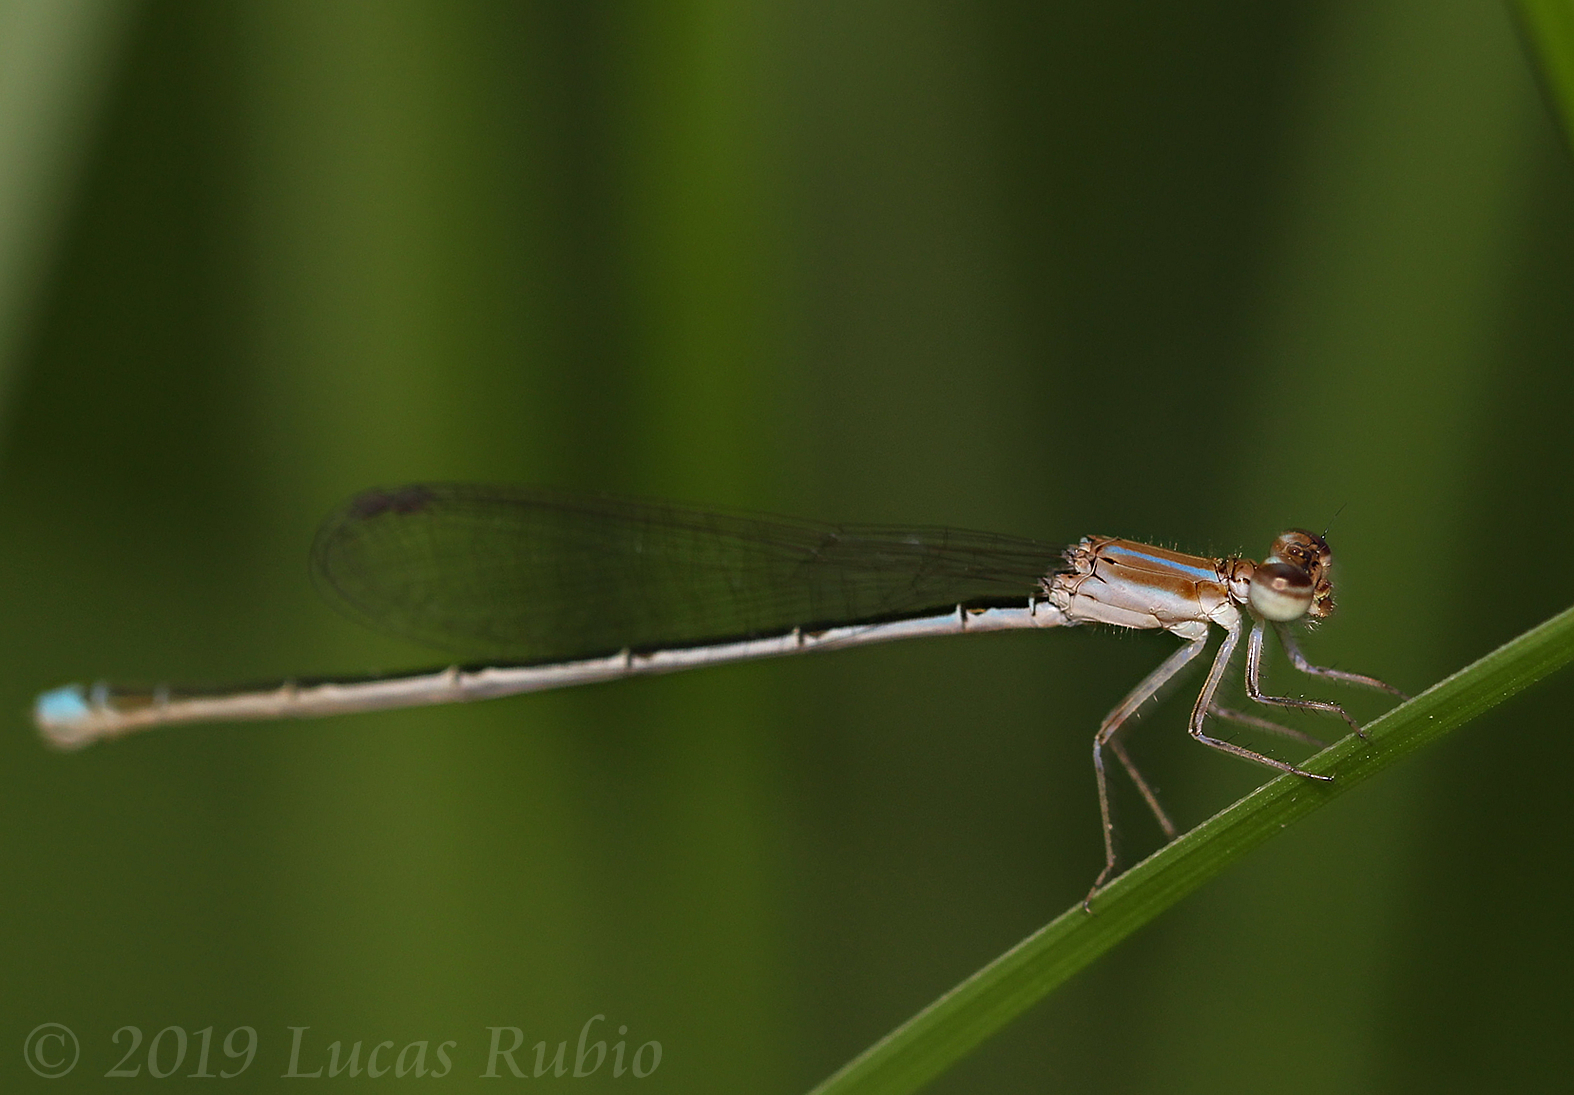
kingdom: Animalia
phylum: Arthropoda
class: Insecta
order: Odonata
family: Coenagrionidae
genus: Argentagrion
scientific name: Argentagrion ambiguum
